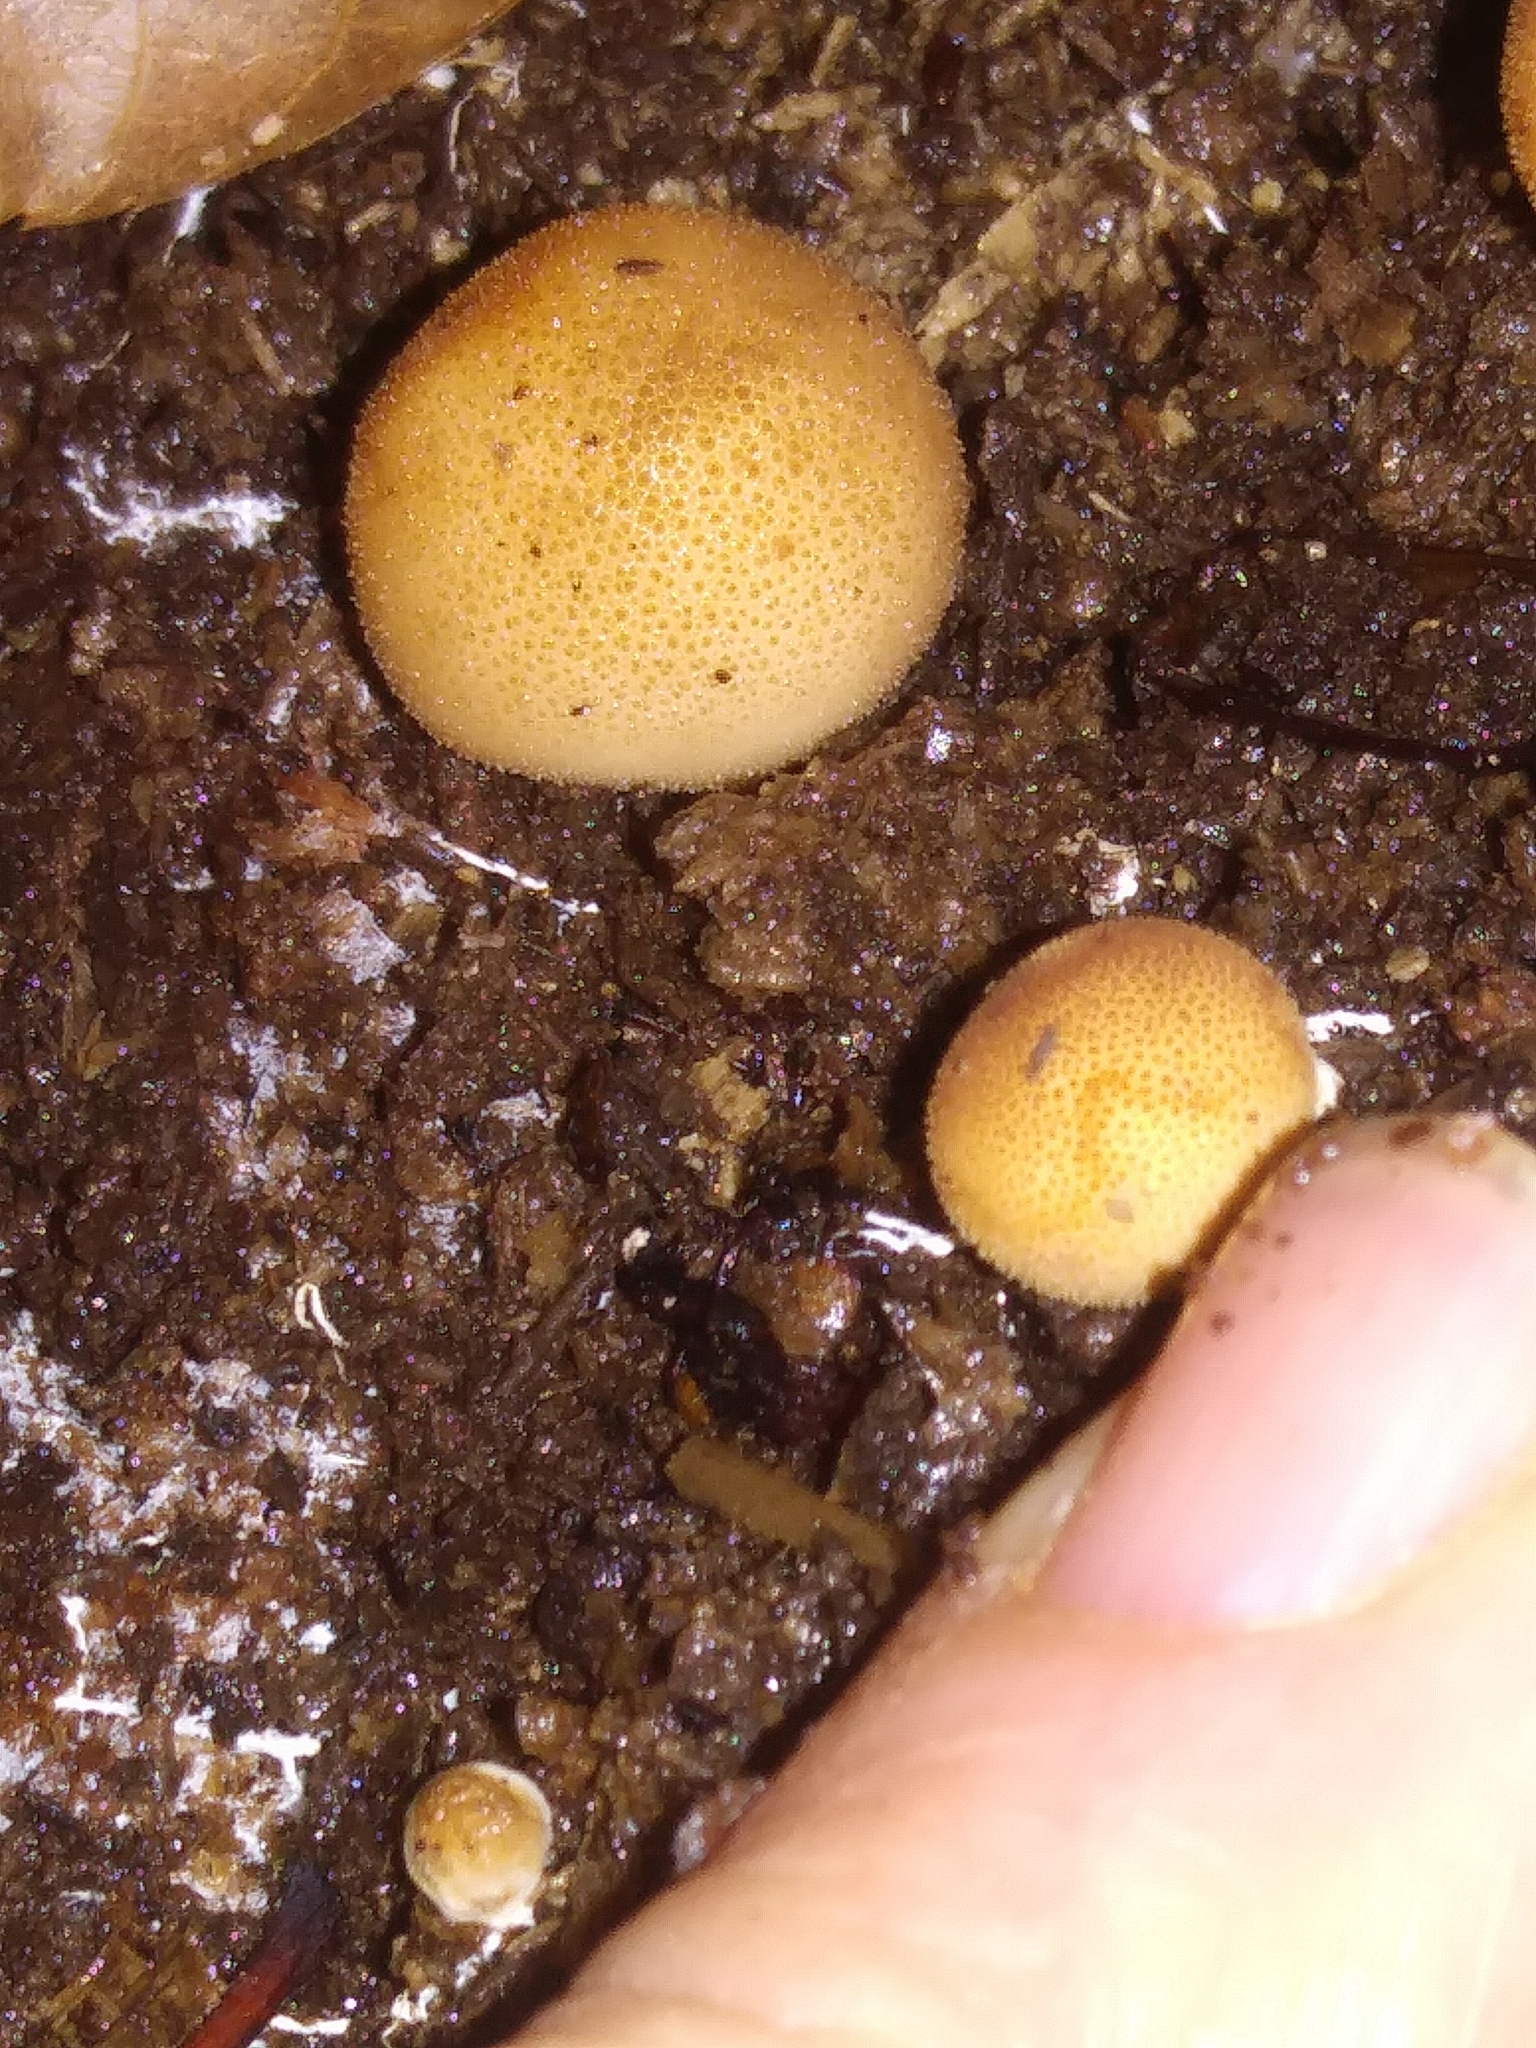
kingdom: Fungi
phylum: Basidiomycota
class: Agaricomycetes
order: Agaricales
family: Lycoperdaceae
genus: Apioperdon
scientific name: Apioperdon pyriforme
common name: Pear-shaped puffball
